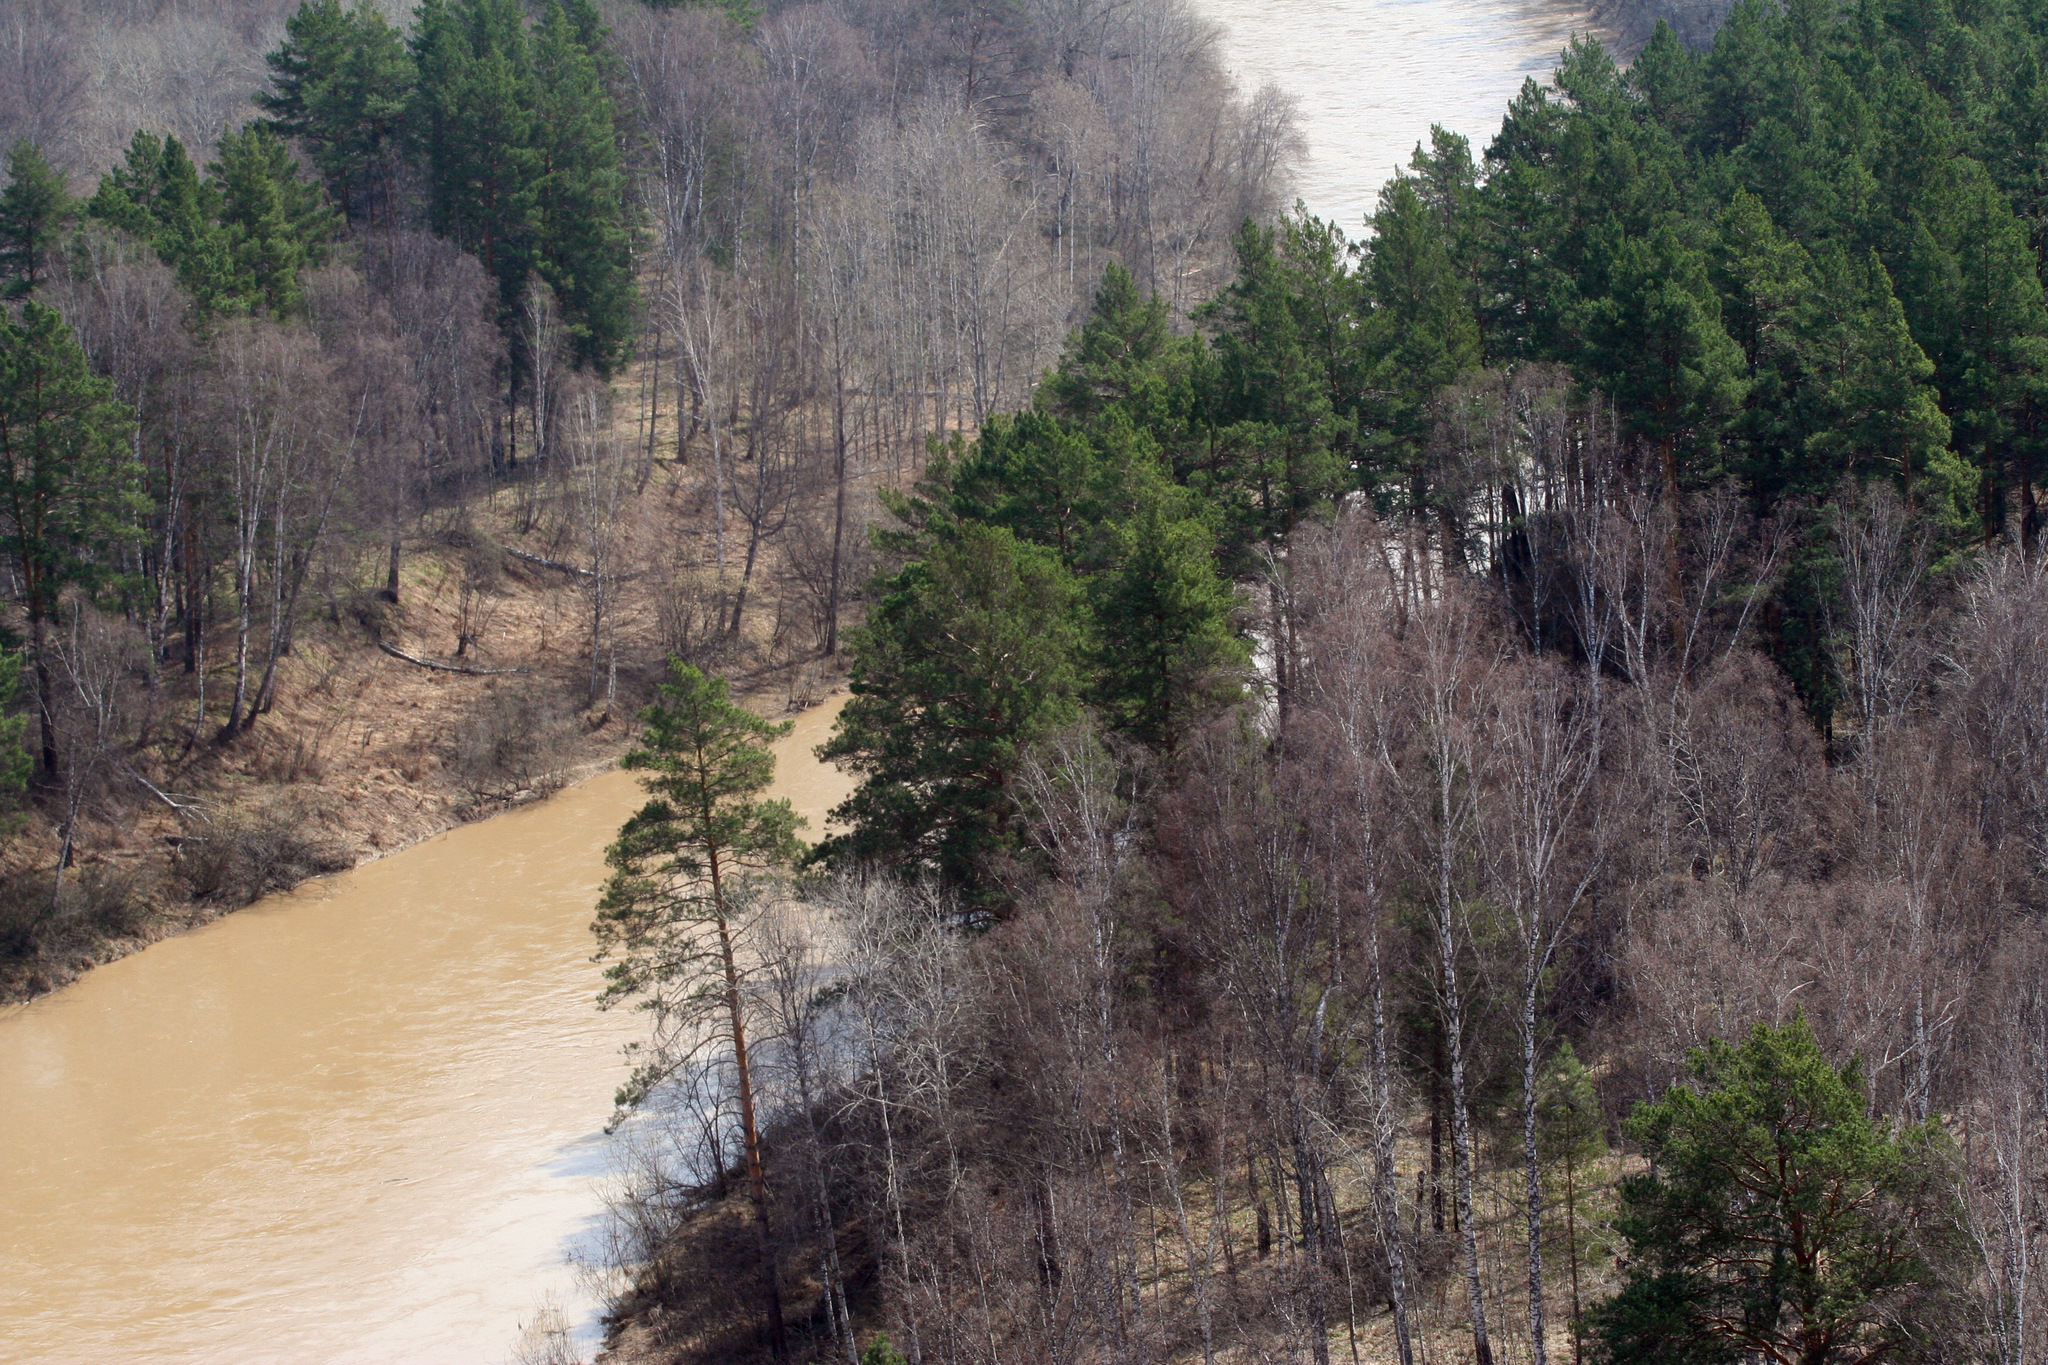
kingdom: Plantae
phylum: Tracheophyta
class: Pinopsida
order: Pinales
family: Pinaceae
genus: Pinus
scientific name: Pinus sylvestris
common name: Scots pine
